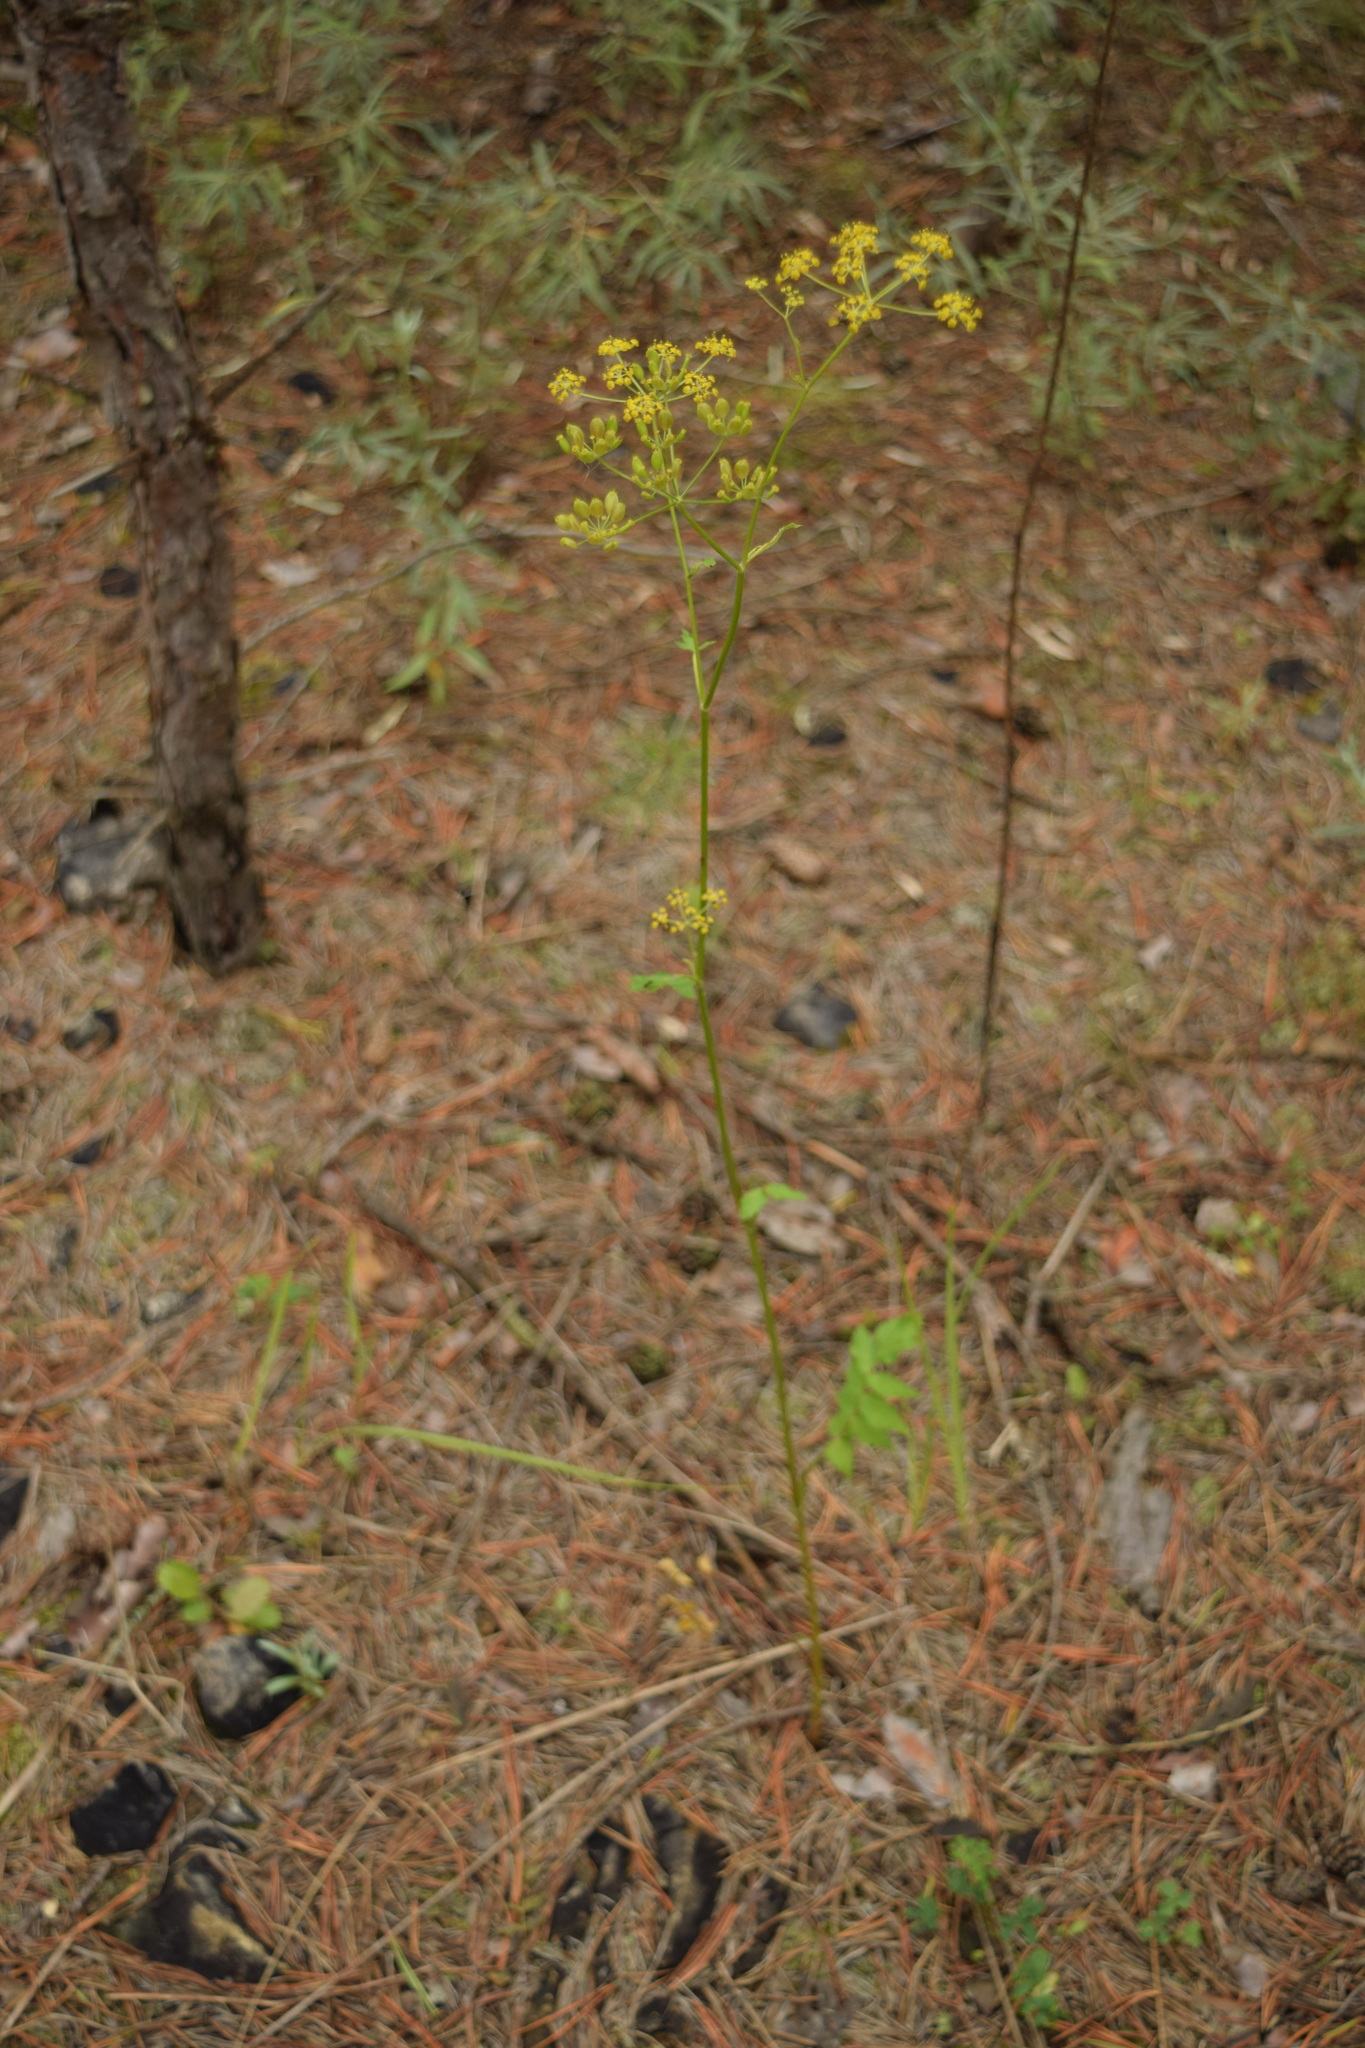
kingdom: Plantae
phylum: Tracheophyta
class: Magnoliopsida
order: Apiales
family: Apiaceae
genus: Pastinaca
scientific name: Pastinaca sativa
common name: Wild parsnip
